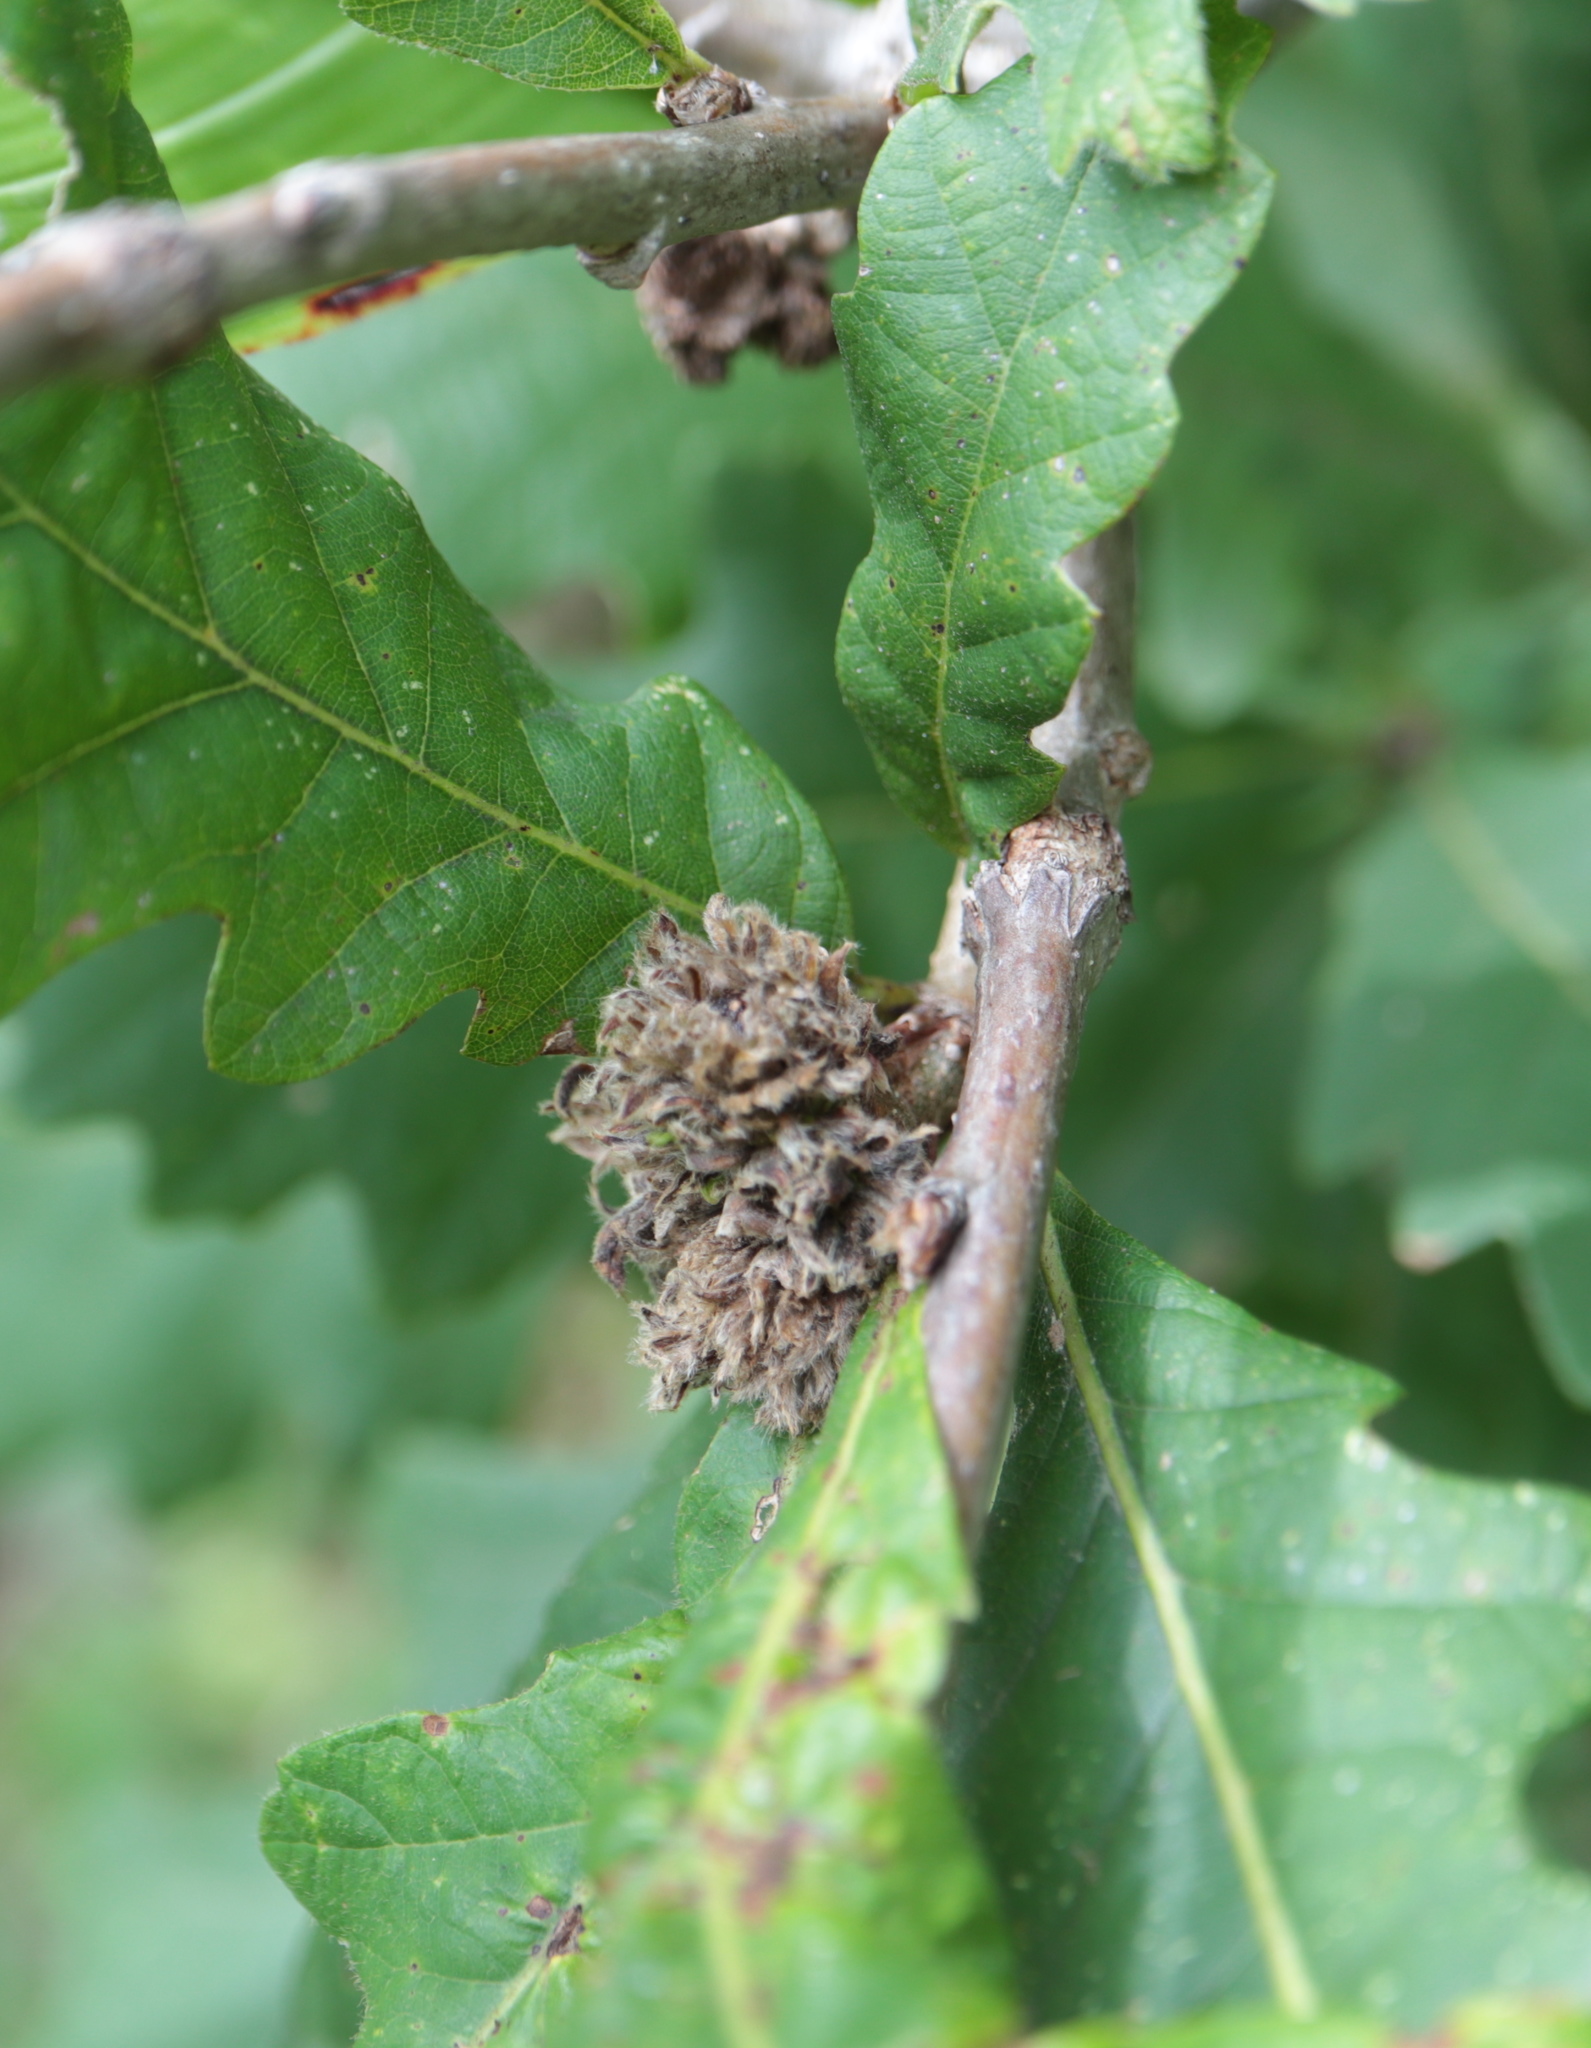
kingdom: Animalia
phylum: Arthropoda
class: Insecta
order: Hymenoptera
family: Cynipidae
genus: Andricus
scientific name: Andricus
